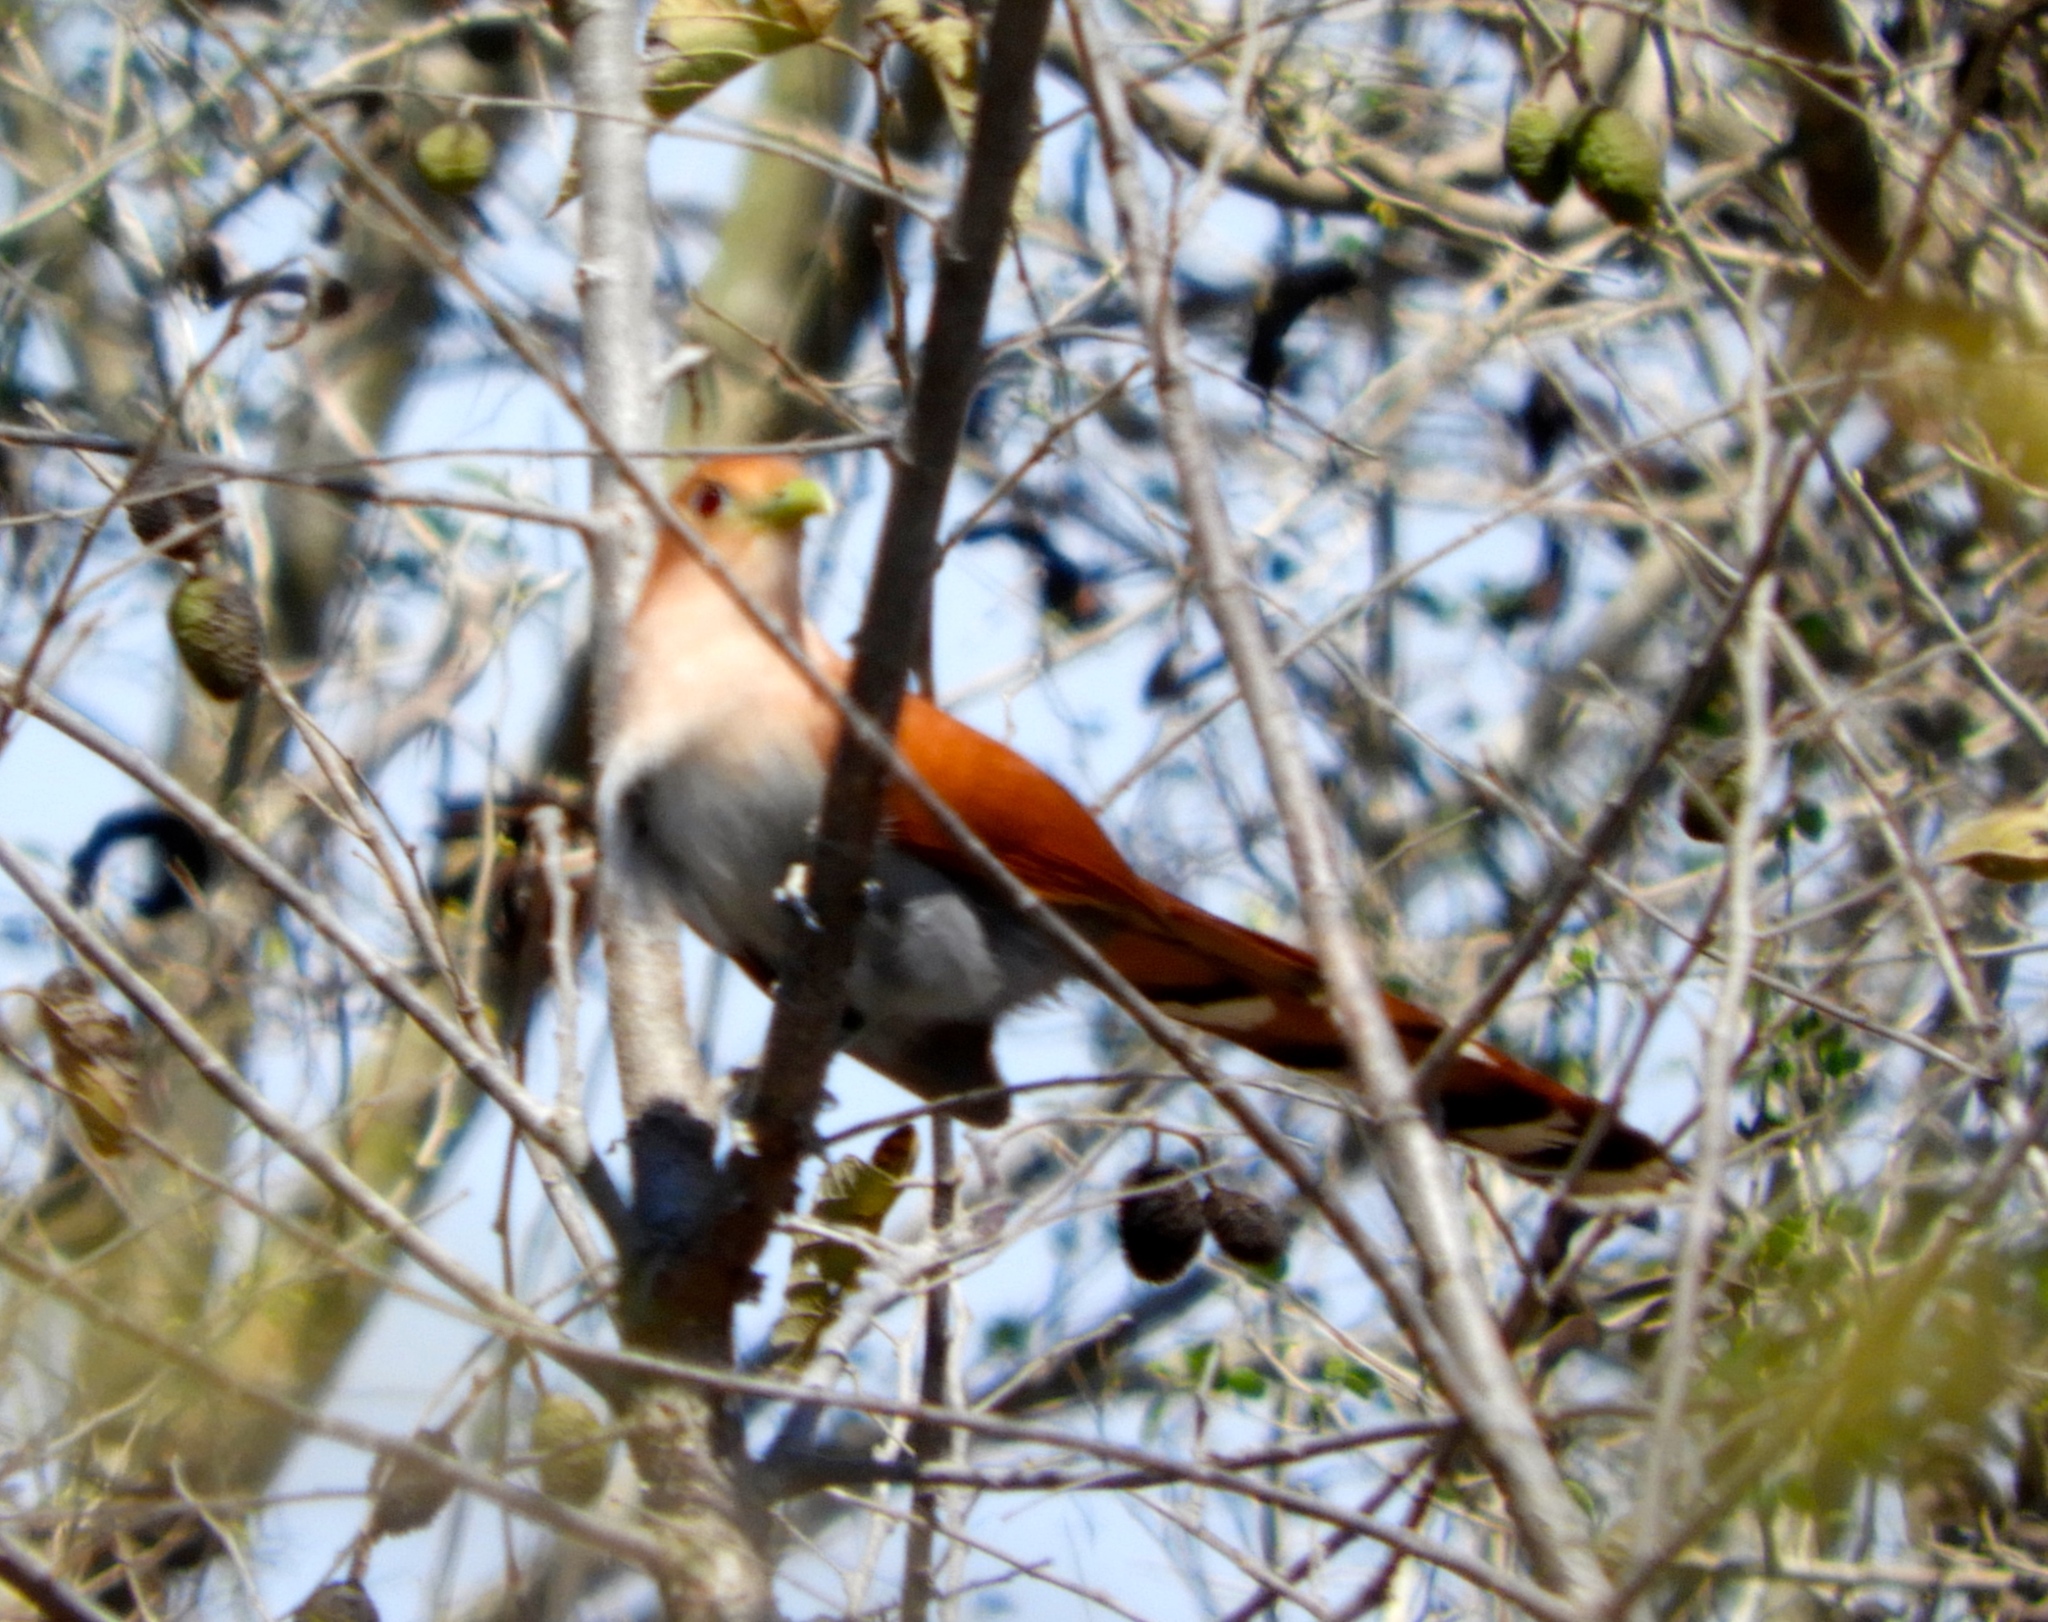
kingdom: Animalia
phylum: Chordata
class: Aves
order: Cuculiformes
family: Cuculidae
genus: Piaya
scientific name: Piaya cayana
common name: Squirrel cuckoo
